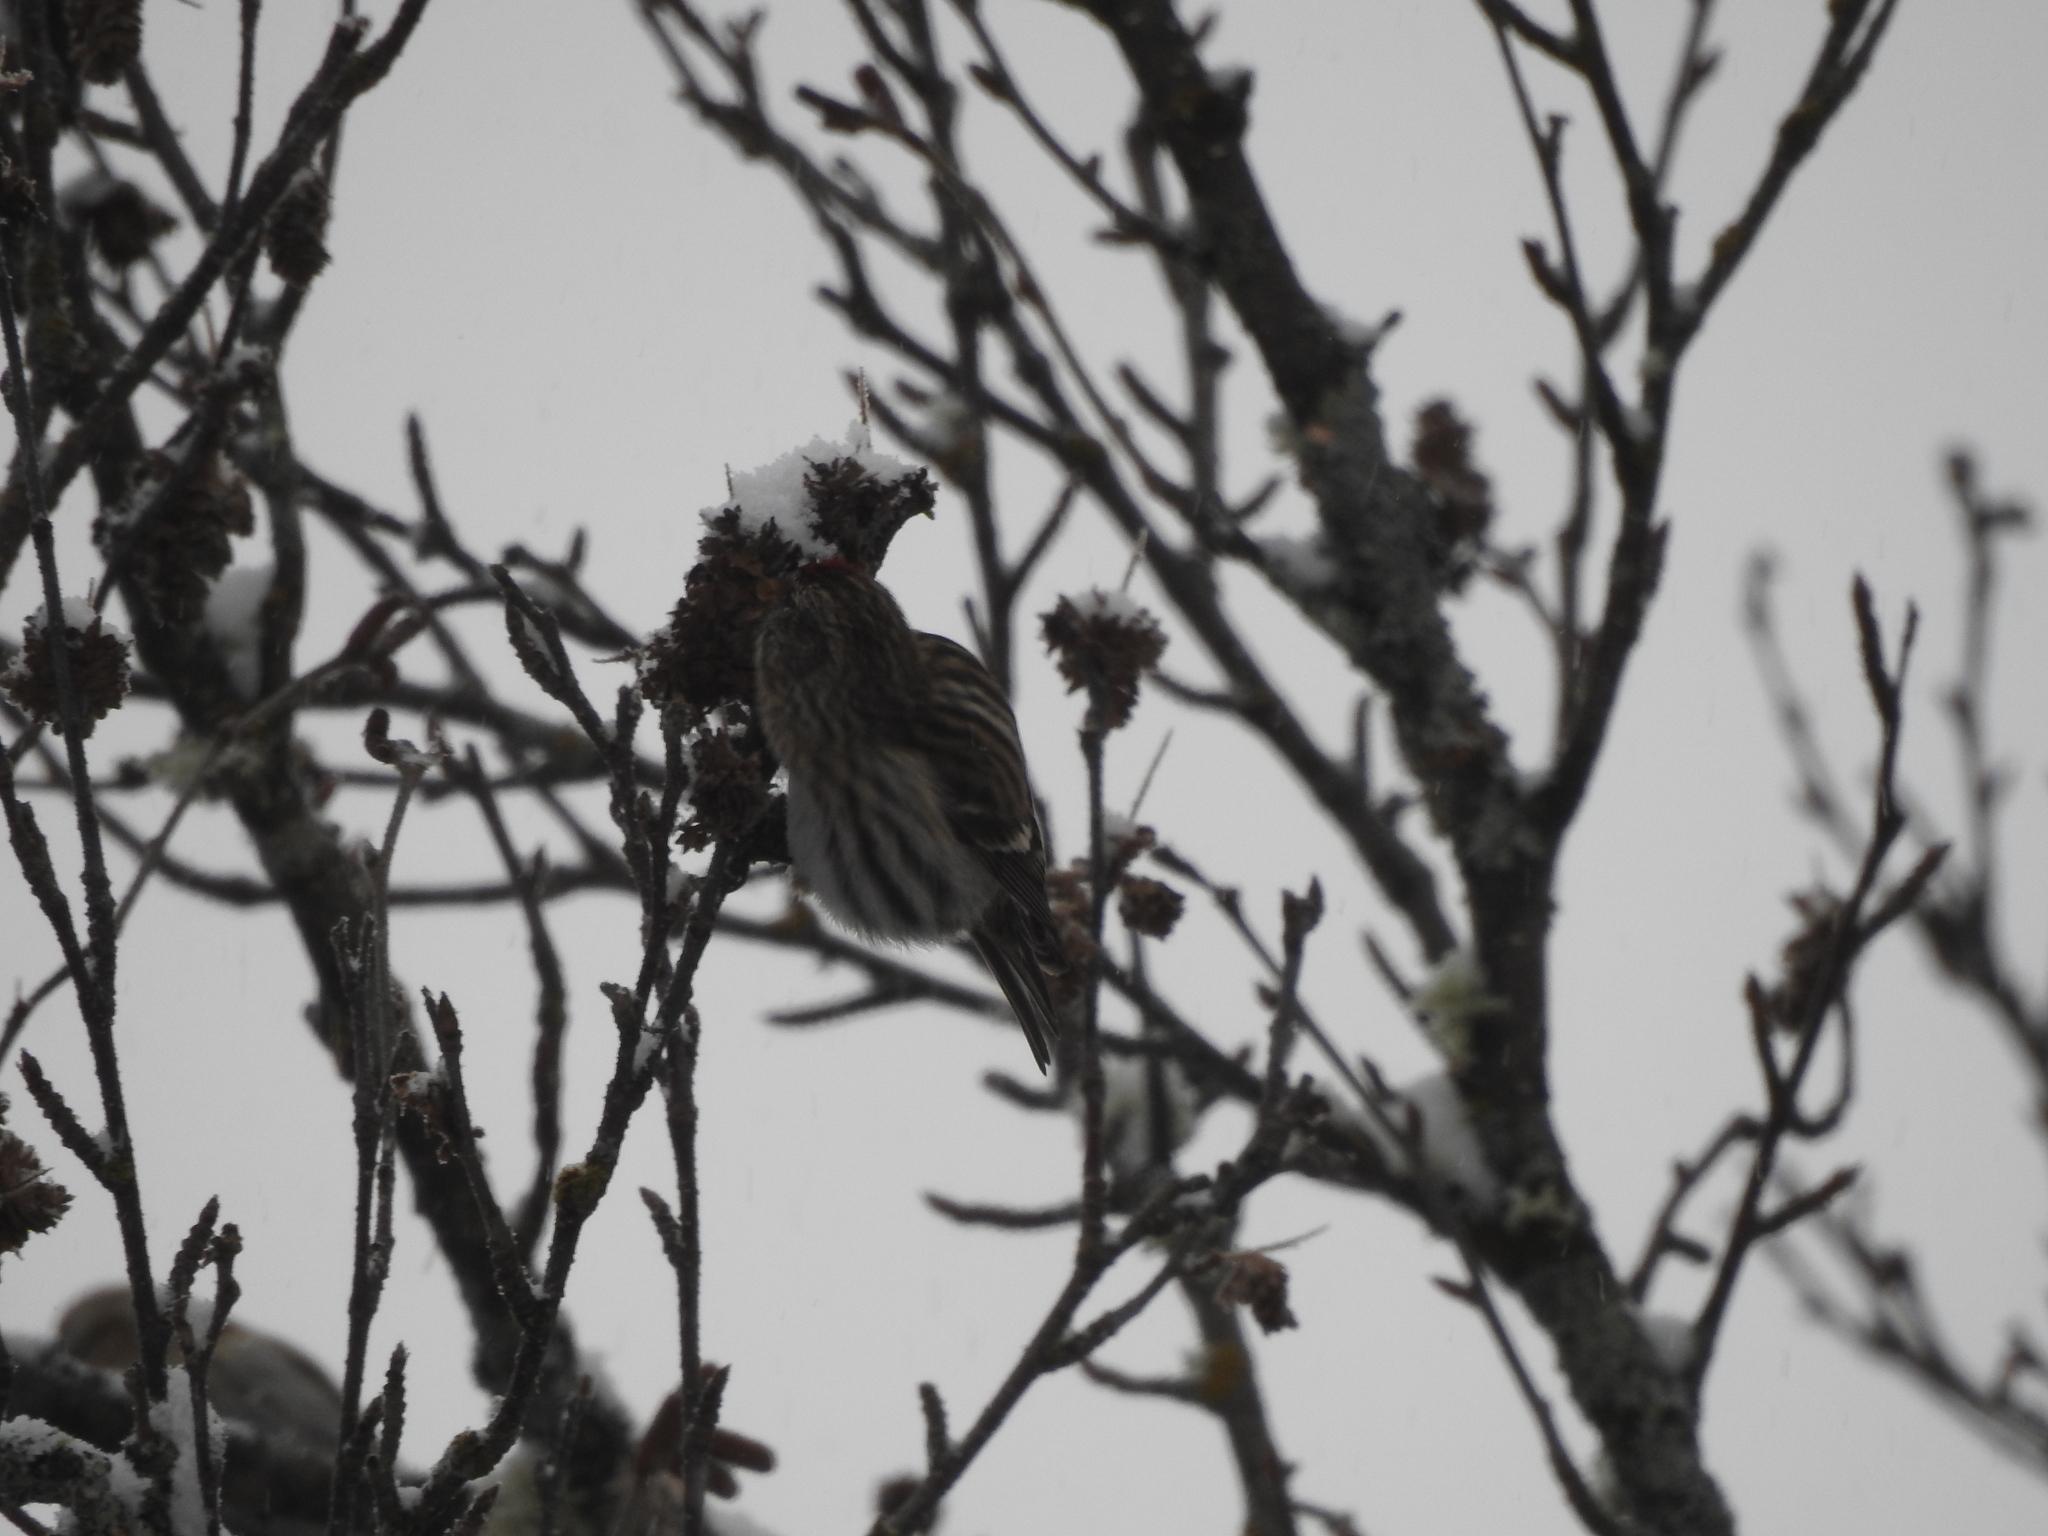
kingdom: Animalia
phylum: Chordata
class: Aves
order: Passeriformes
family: Fringillidae
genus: Acanthis
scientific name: Acanthis flammea
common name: Common redpoll
